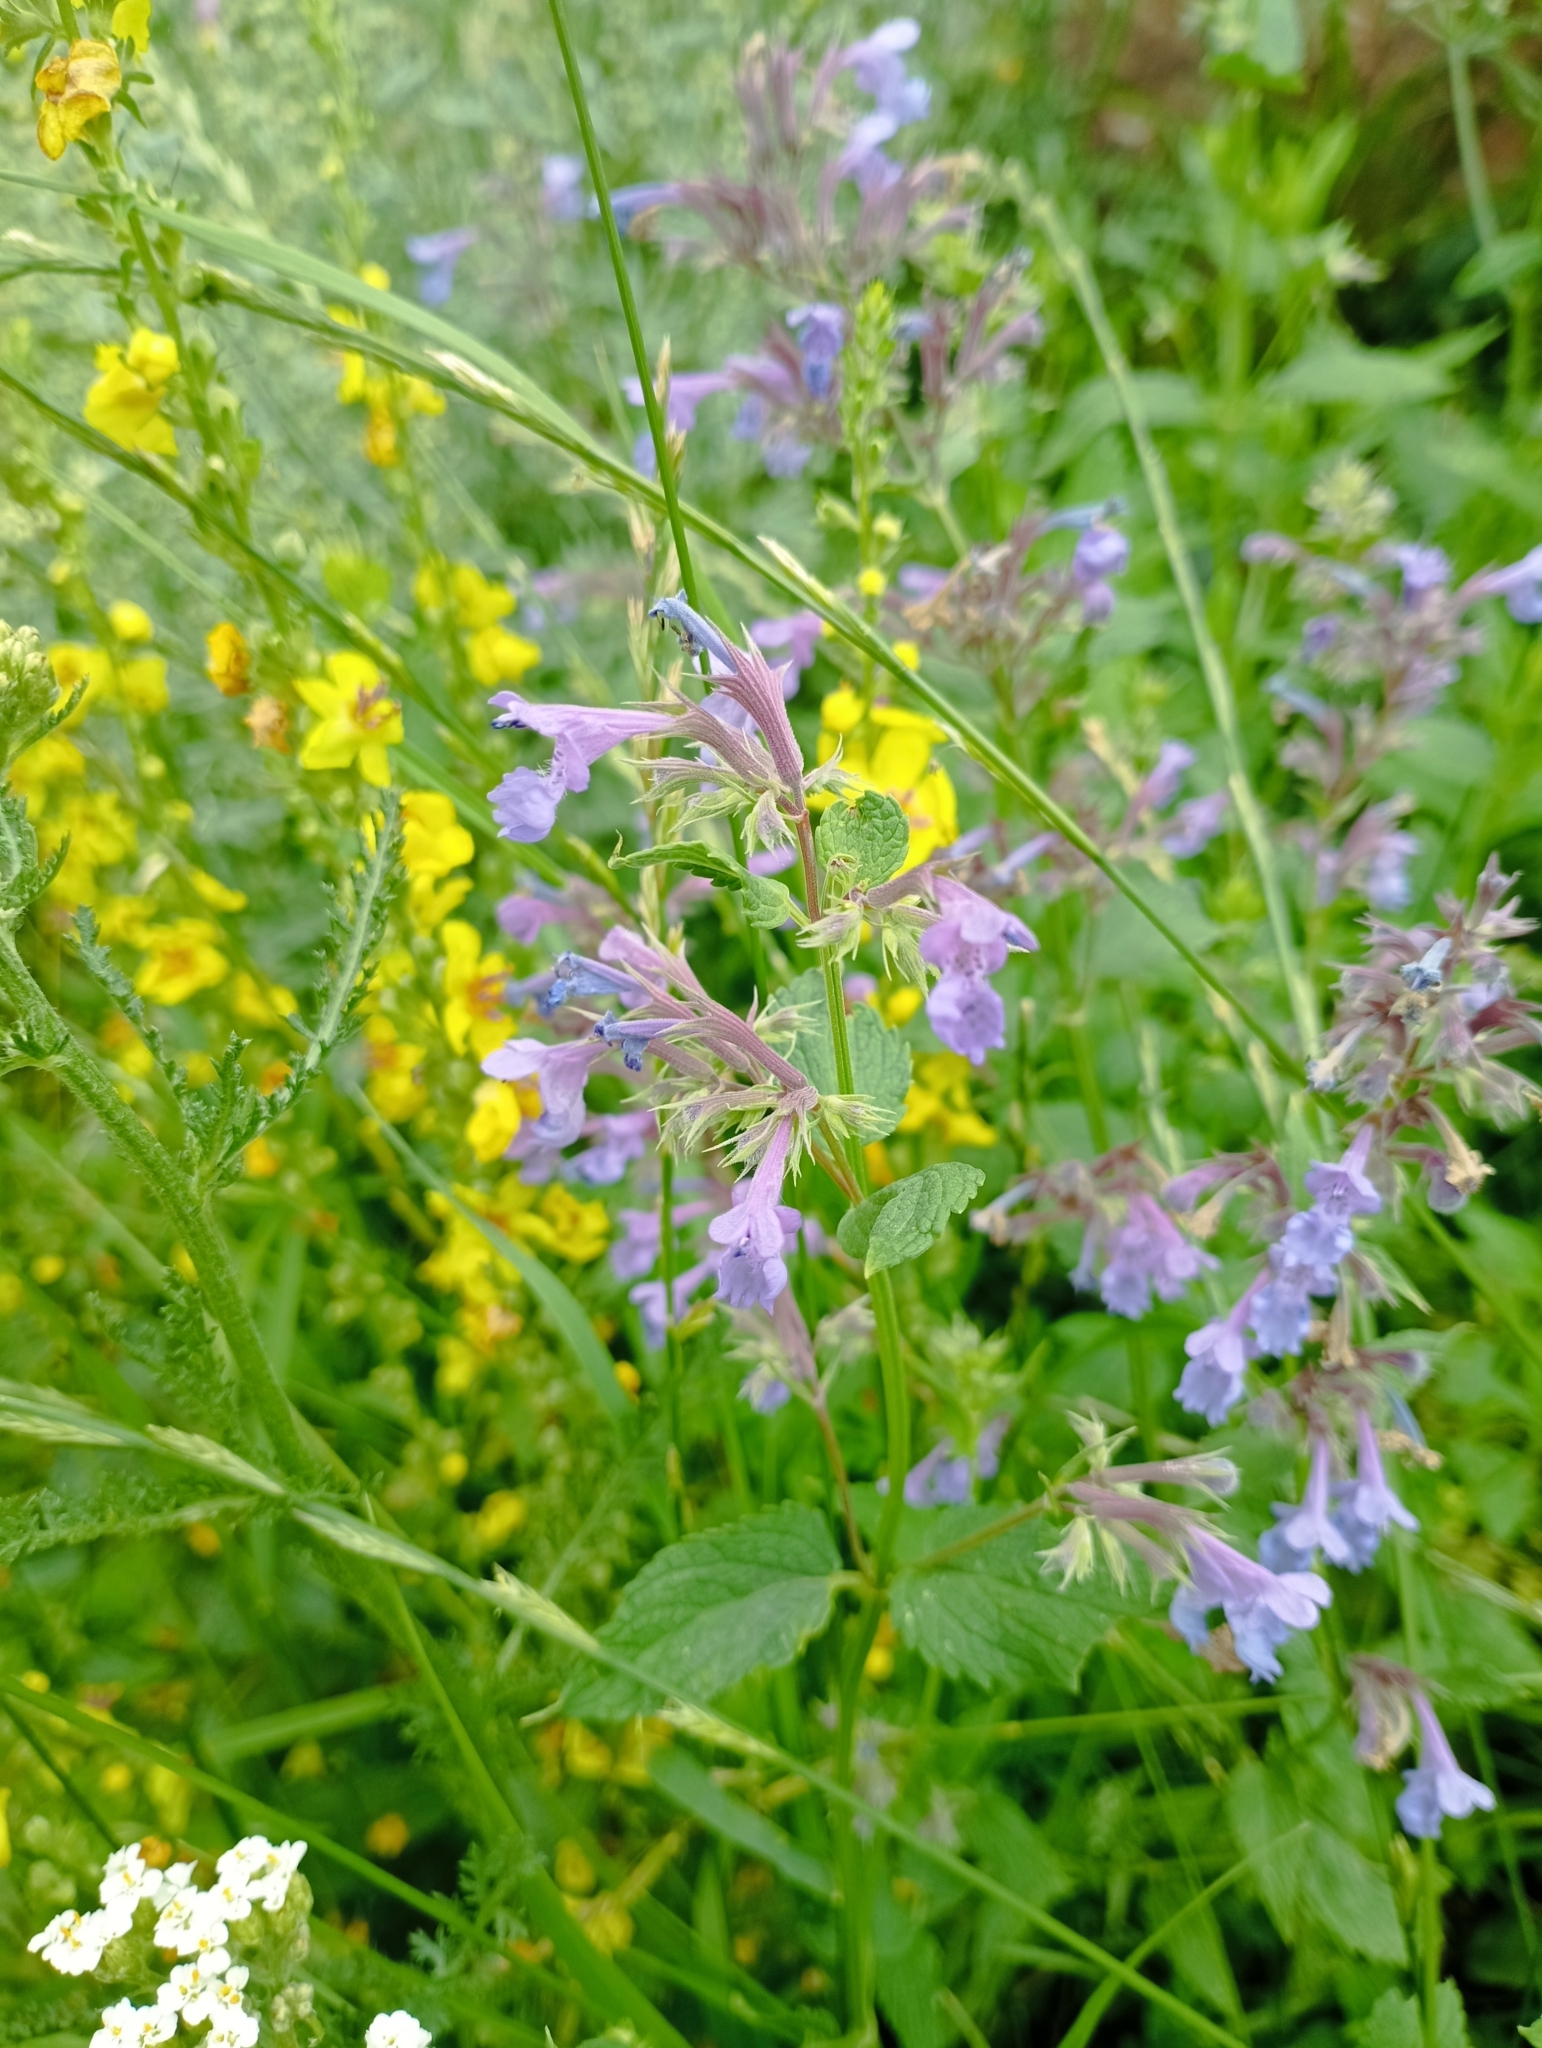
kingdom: Plantae
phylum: Tracheophyta
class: Magnoliopsida
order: Lamiales
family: Lamiaceae
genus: Nepeta
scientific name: Nepeta grandiflora
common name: Caucasus catmint
